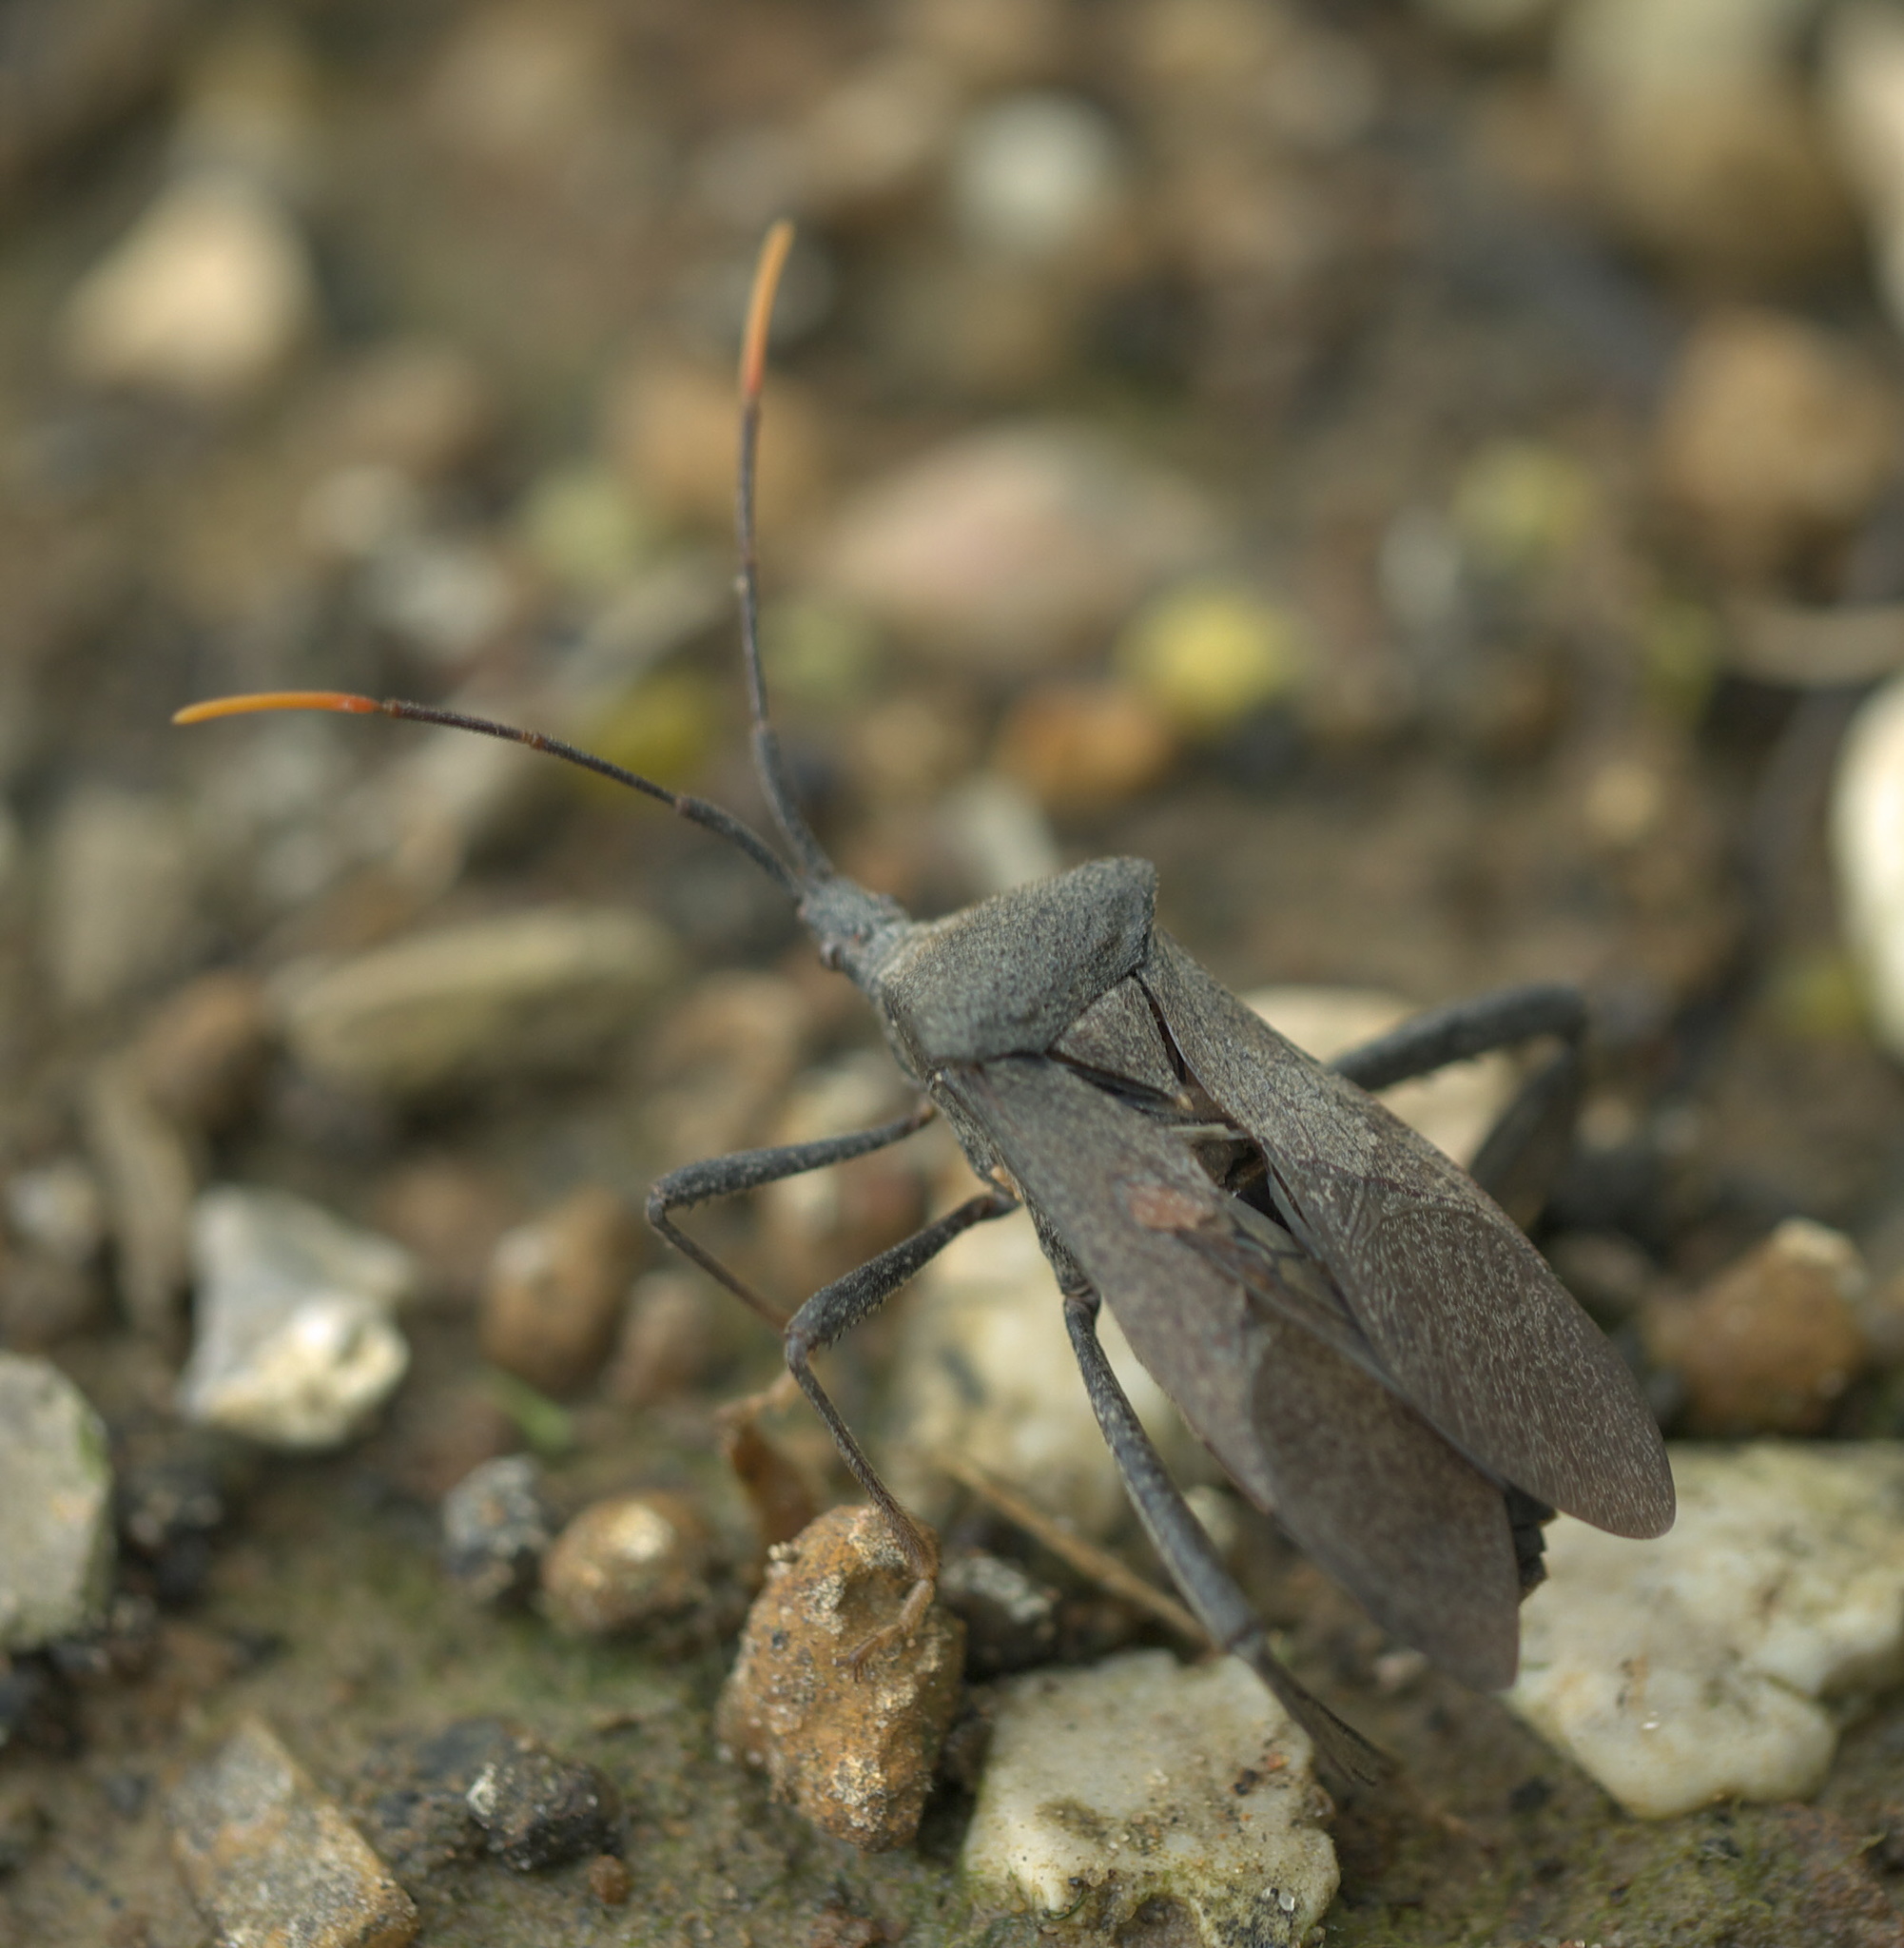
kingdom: Animalia
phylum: Arthropoda
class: Insecta
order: Hemiptera
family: Coreidae
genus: Acanthocephala
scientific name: Acanthocephala terminalis
